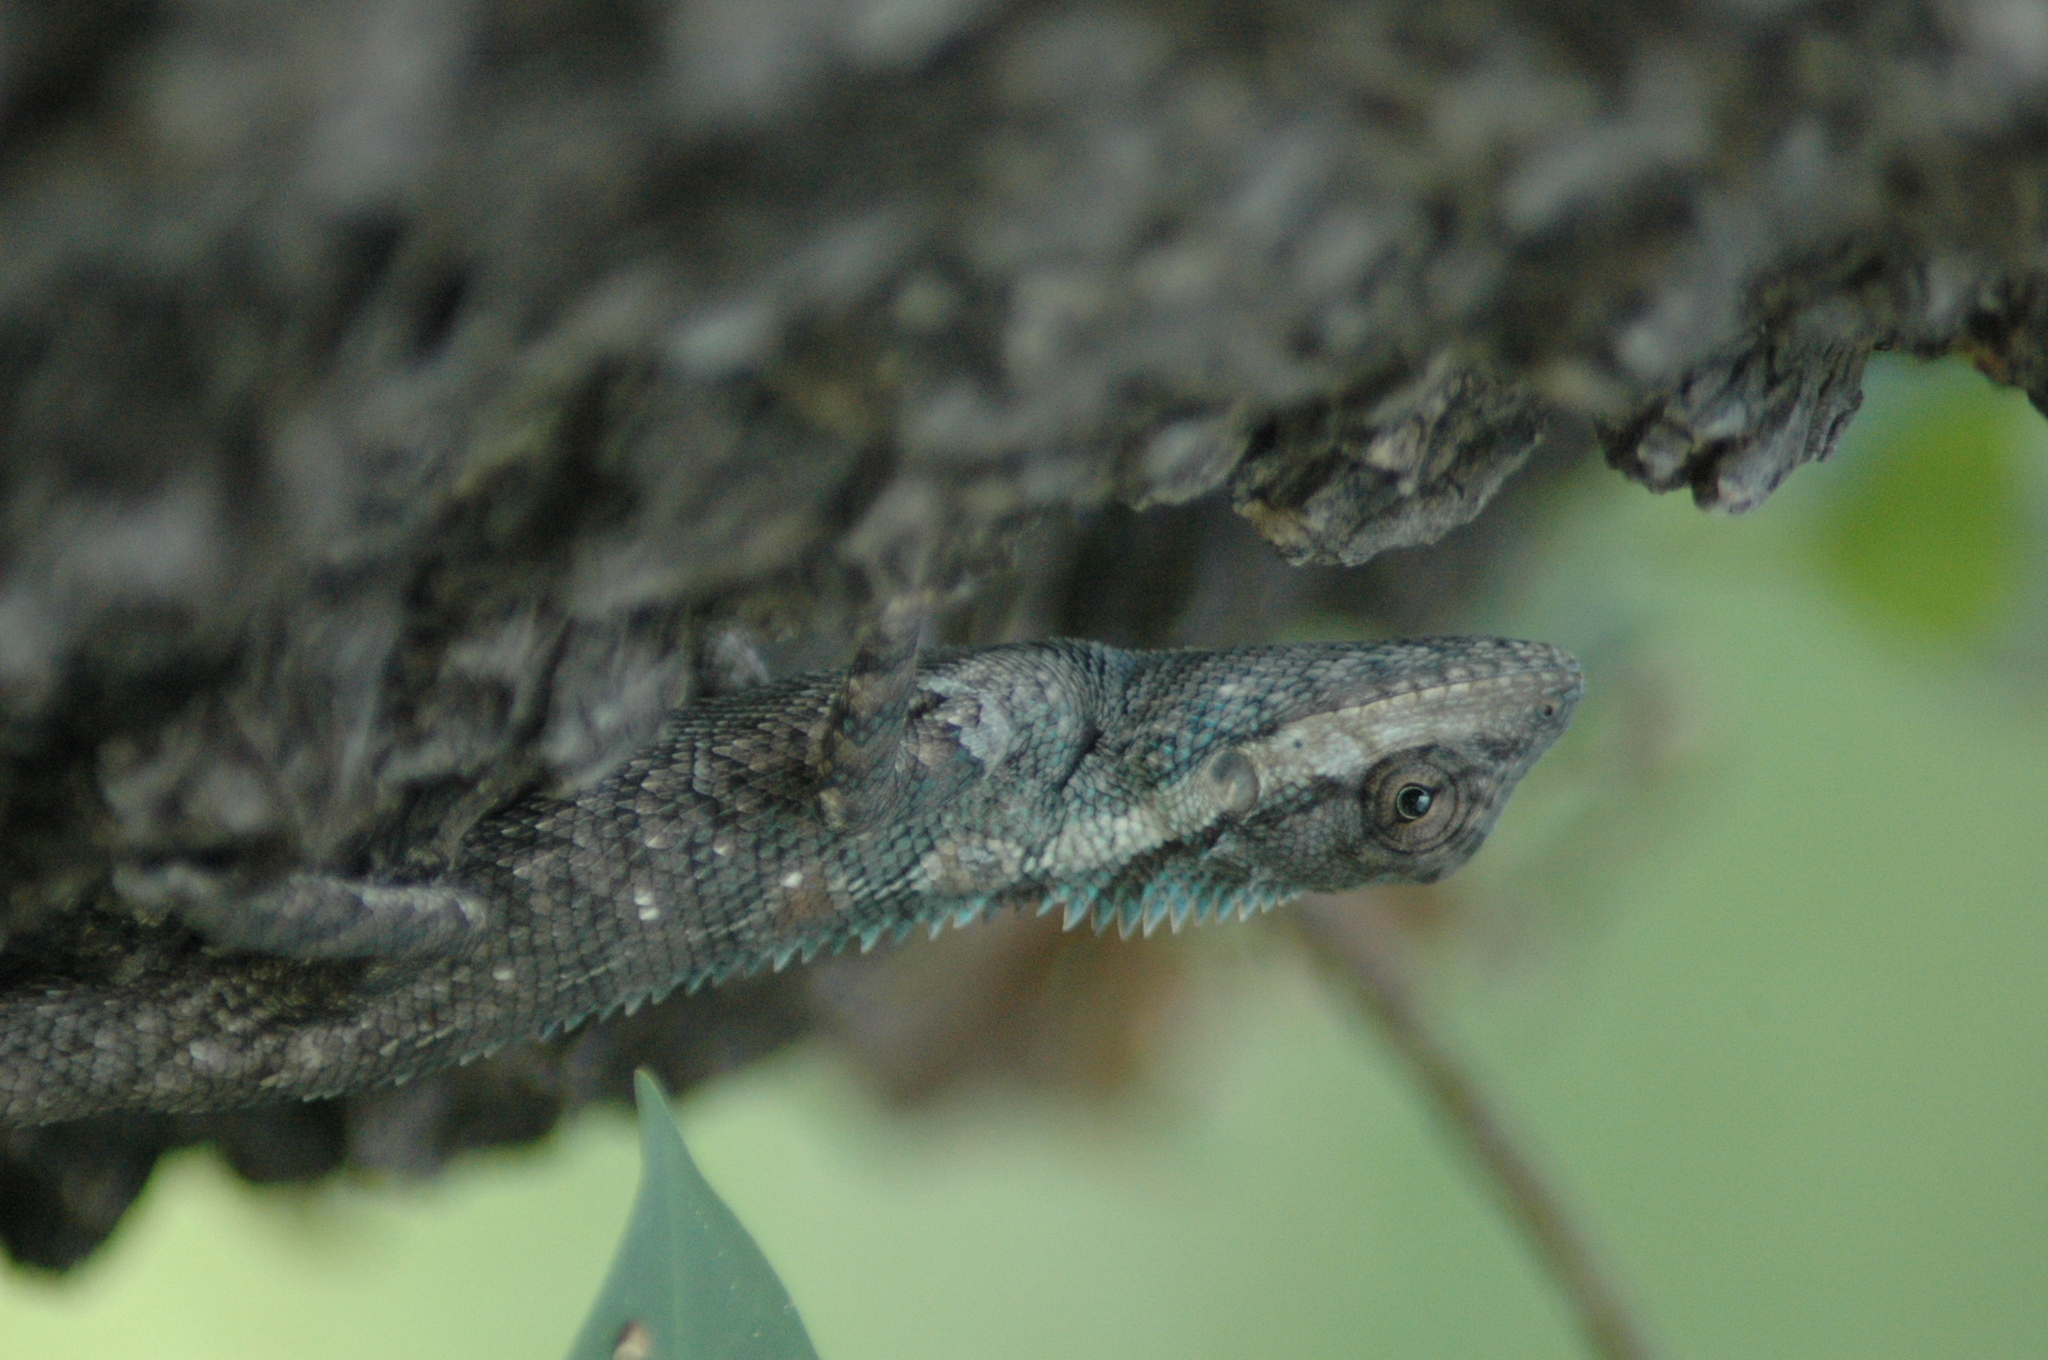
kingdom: Animalia
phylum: Chordata
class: Squamata
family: Agamidae
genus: Calotes
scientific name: Calotes goetzi
